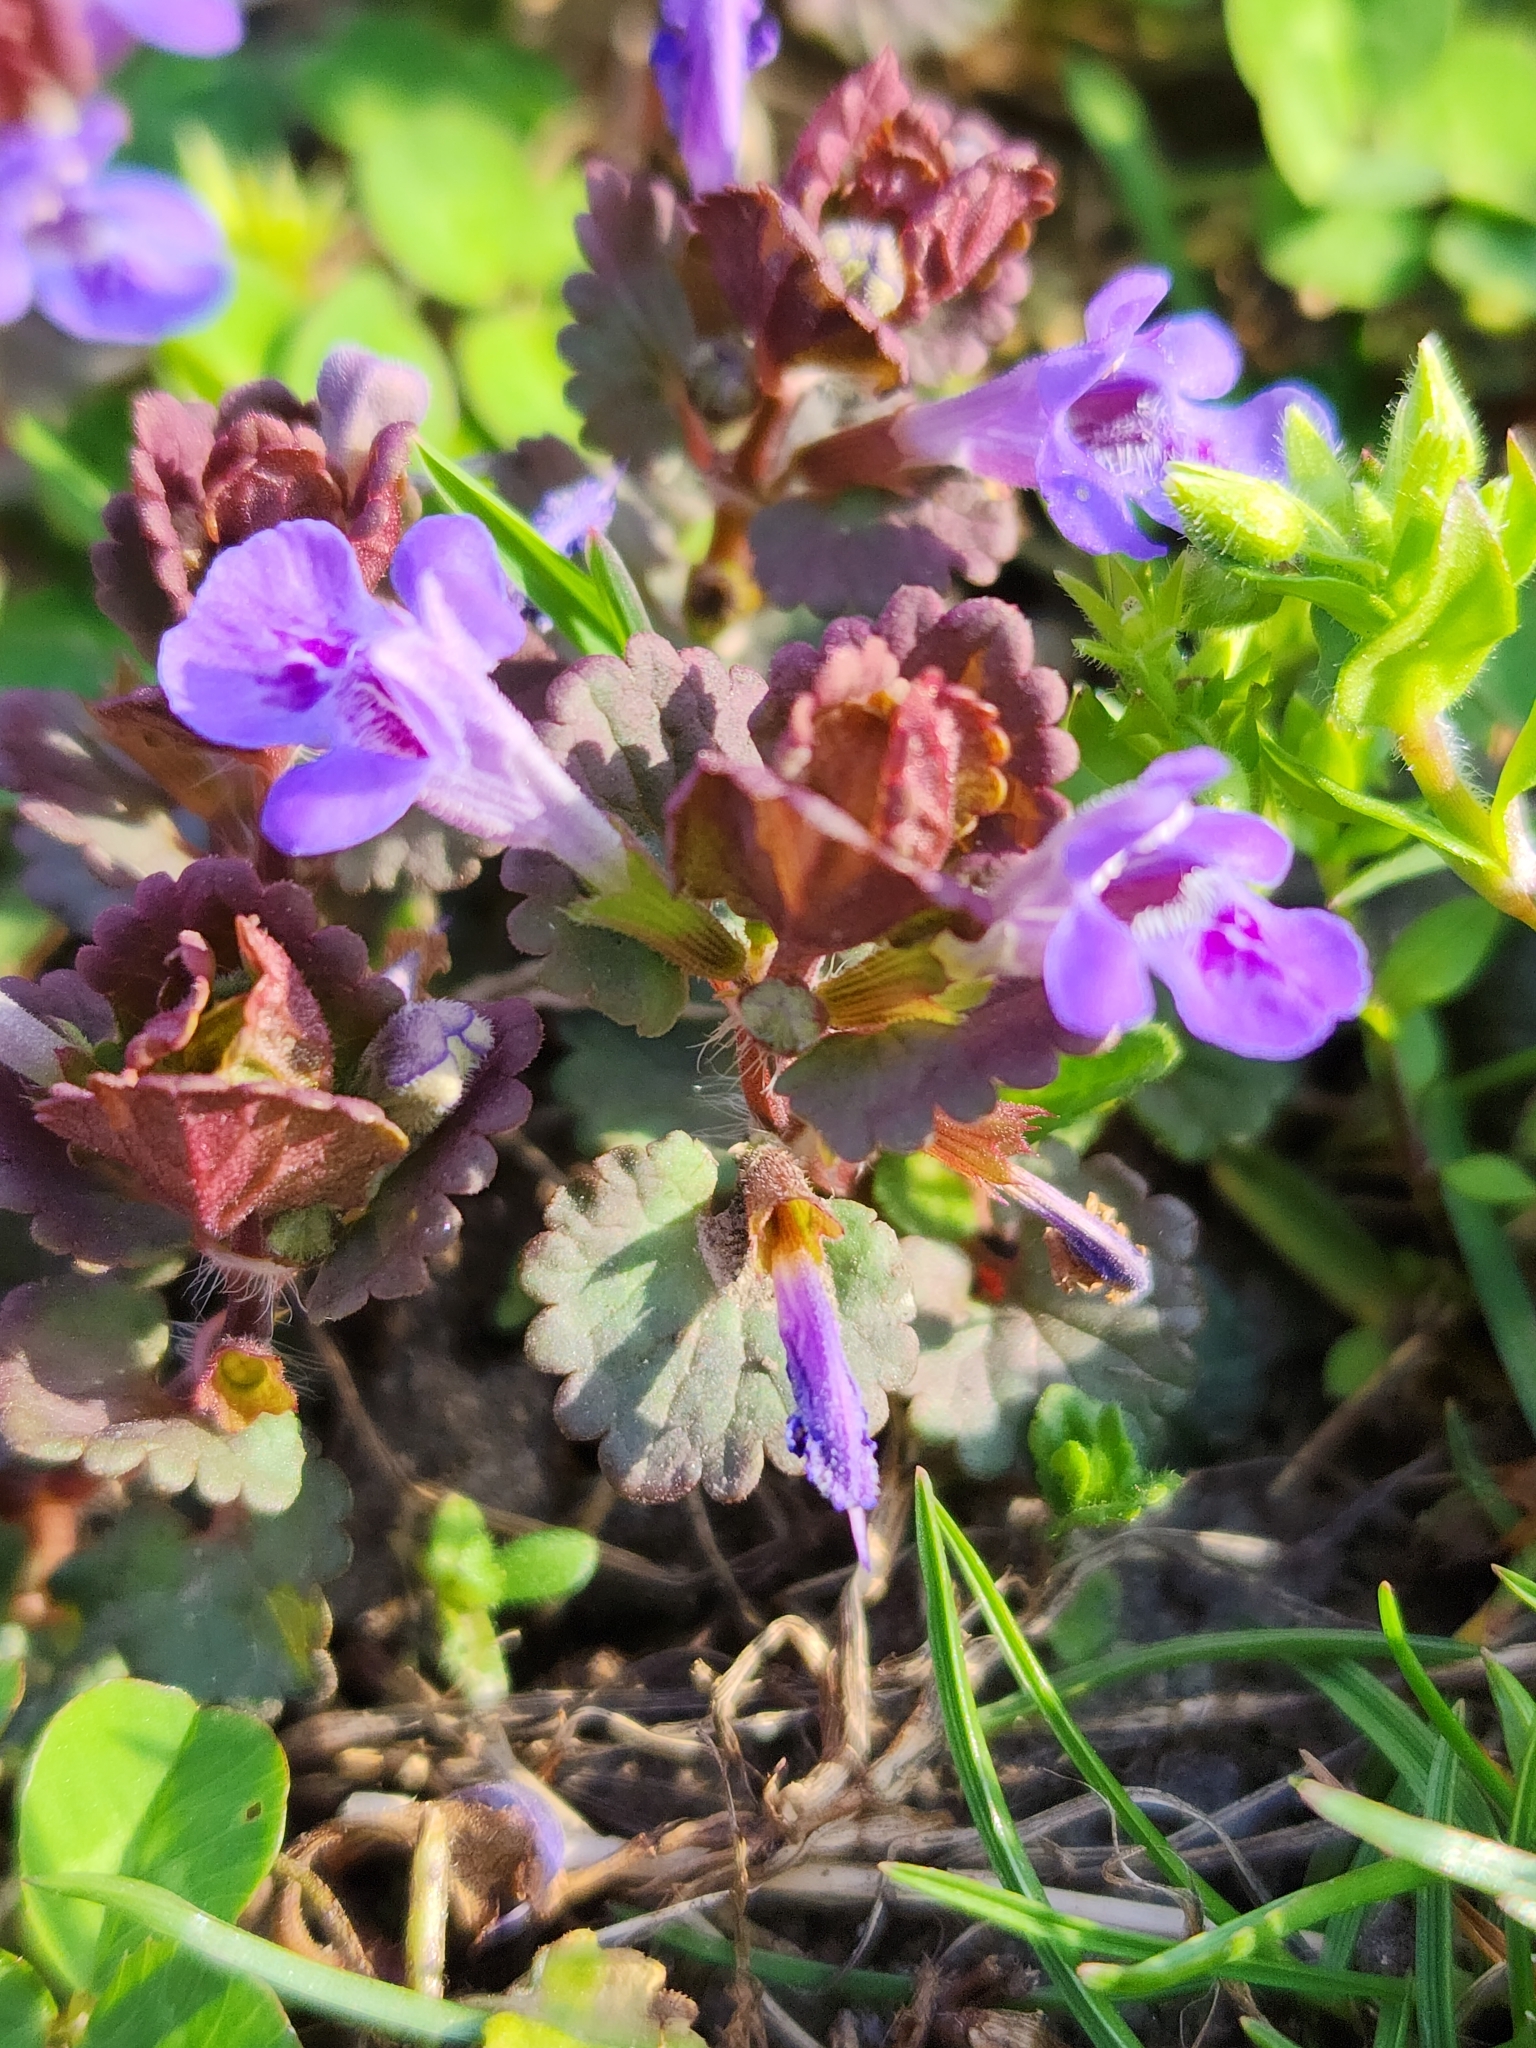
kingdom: Plantae
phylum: Tracheophyta
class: Magnoliopsida
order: Lamiales
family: Lamiaceae
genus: Glechoma
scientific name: Glechoma hederacea
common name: Ground ivy
